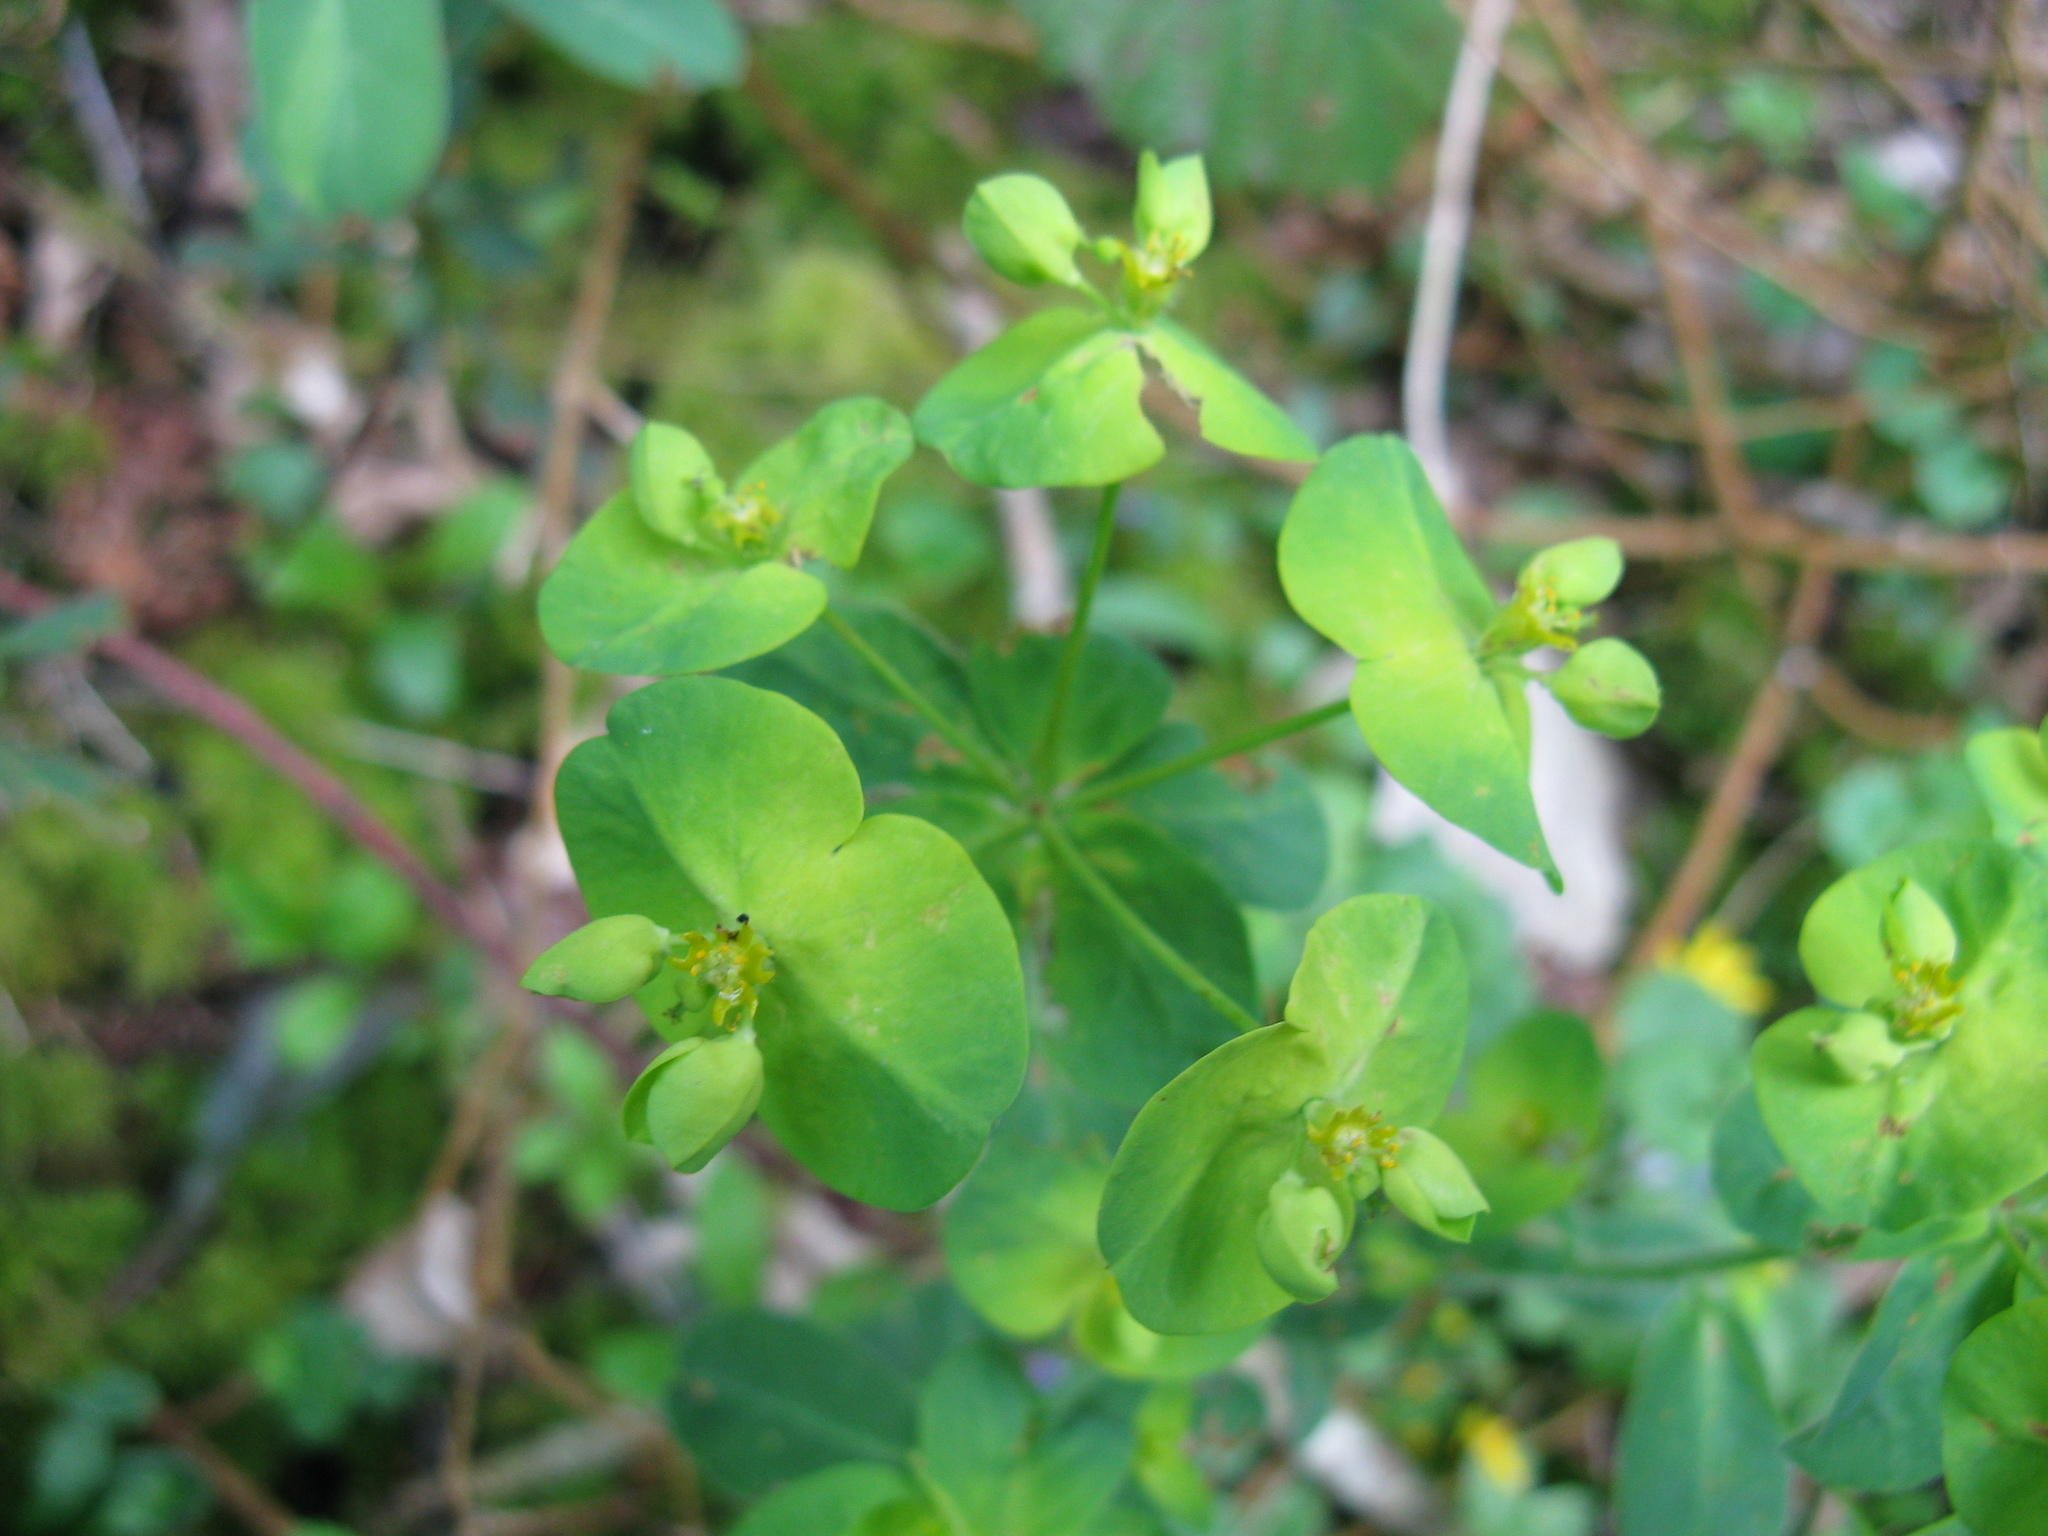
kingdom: Plantae
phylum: Tracheophyta
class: Magnoliopsida
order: Malpighiales
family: Euphorbiaceae
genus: Euphorbia
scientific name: Euphorbia amygdaloides
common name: Wood spurge
